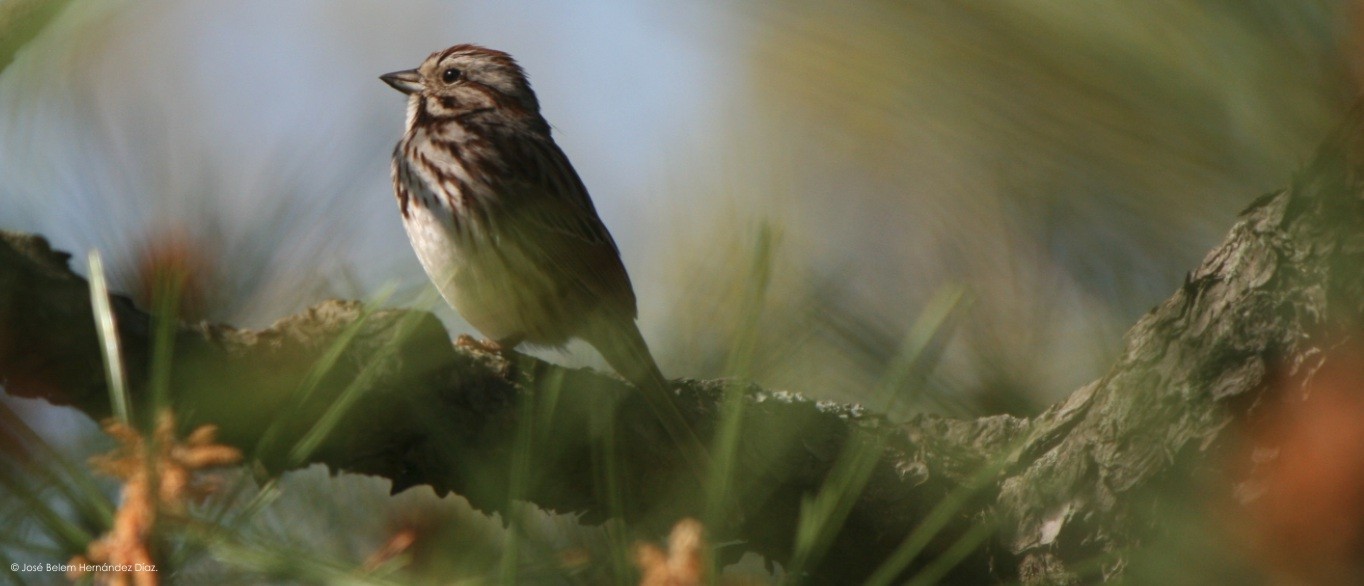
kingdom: Animalia
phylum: Chordata
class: Aves
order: Passeriformes
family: Passerellidae
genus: Melospiza
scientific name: Melospiza melodia
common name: Song sparrow
